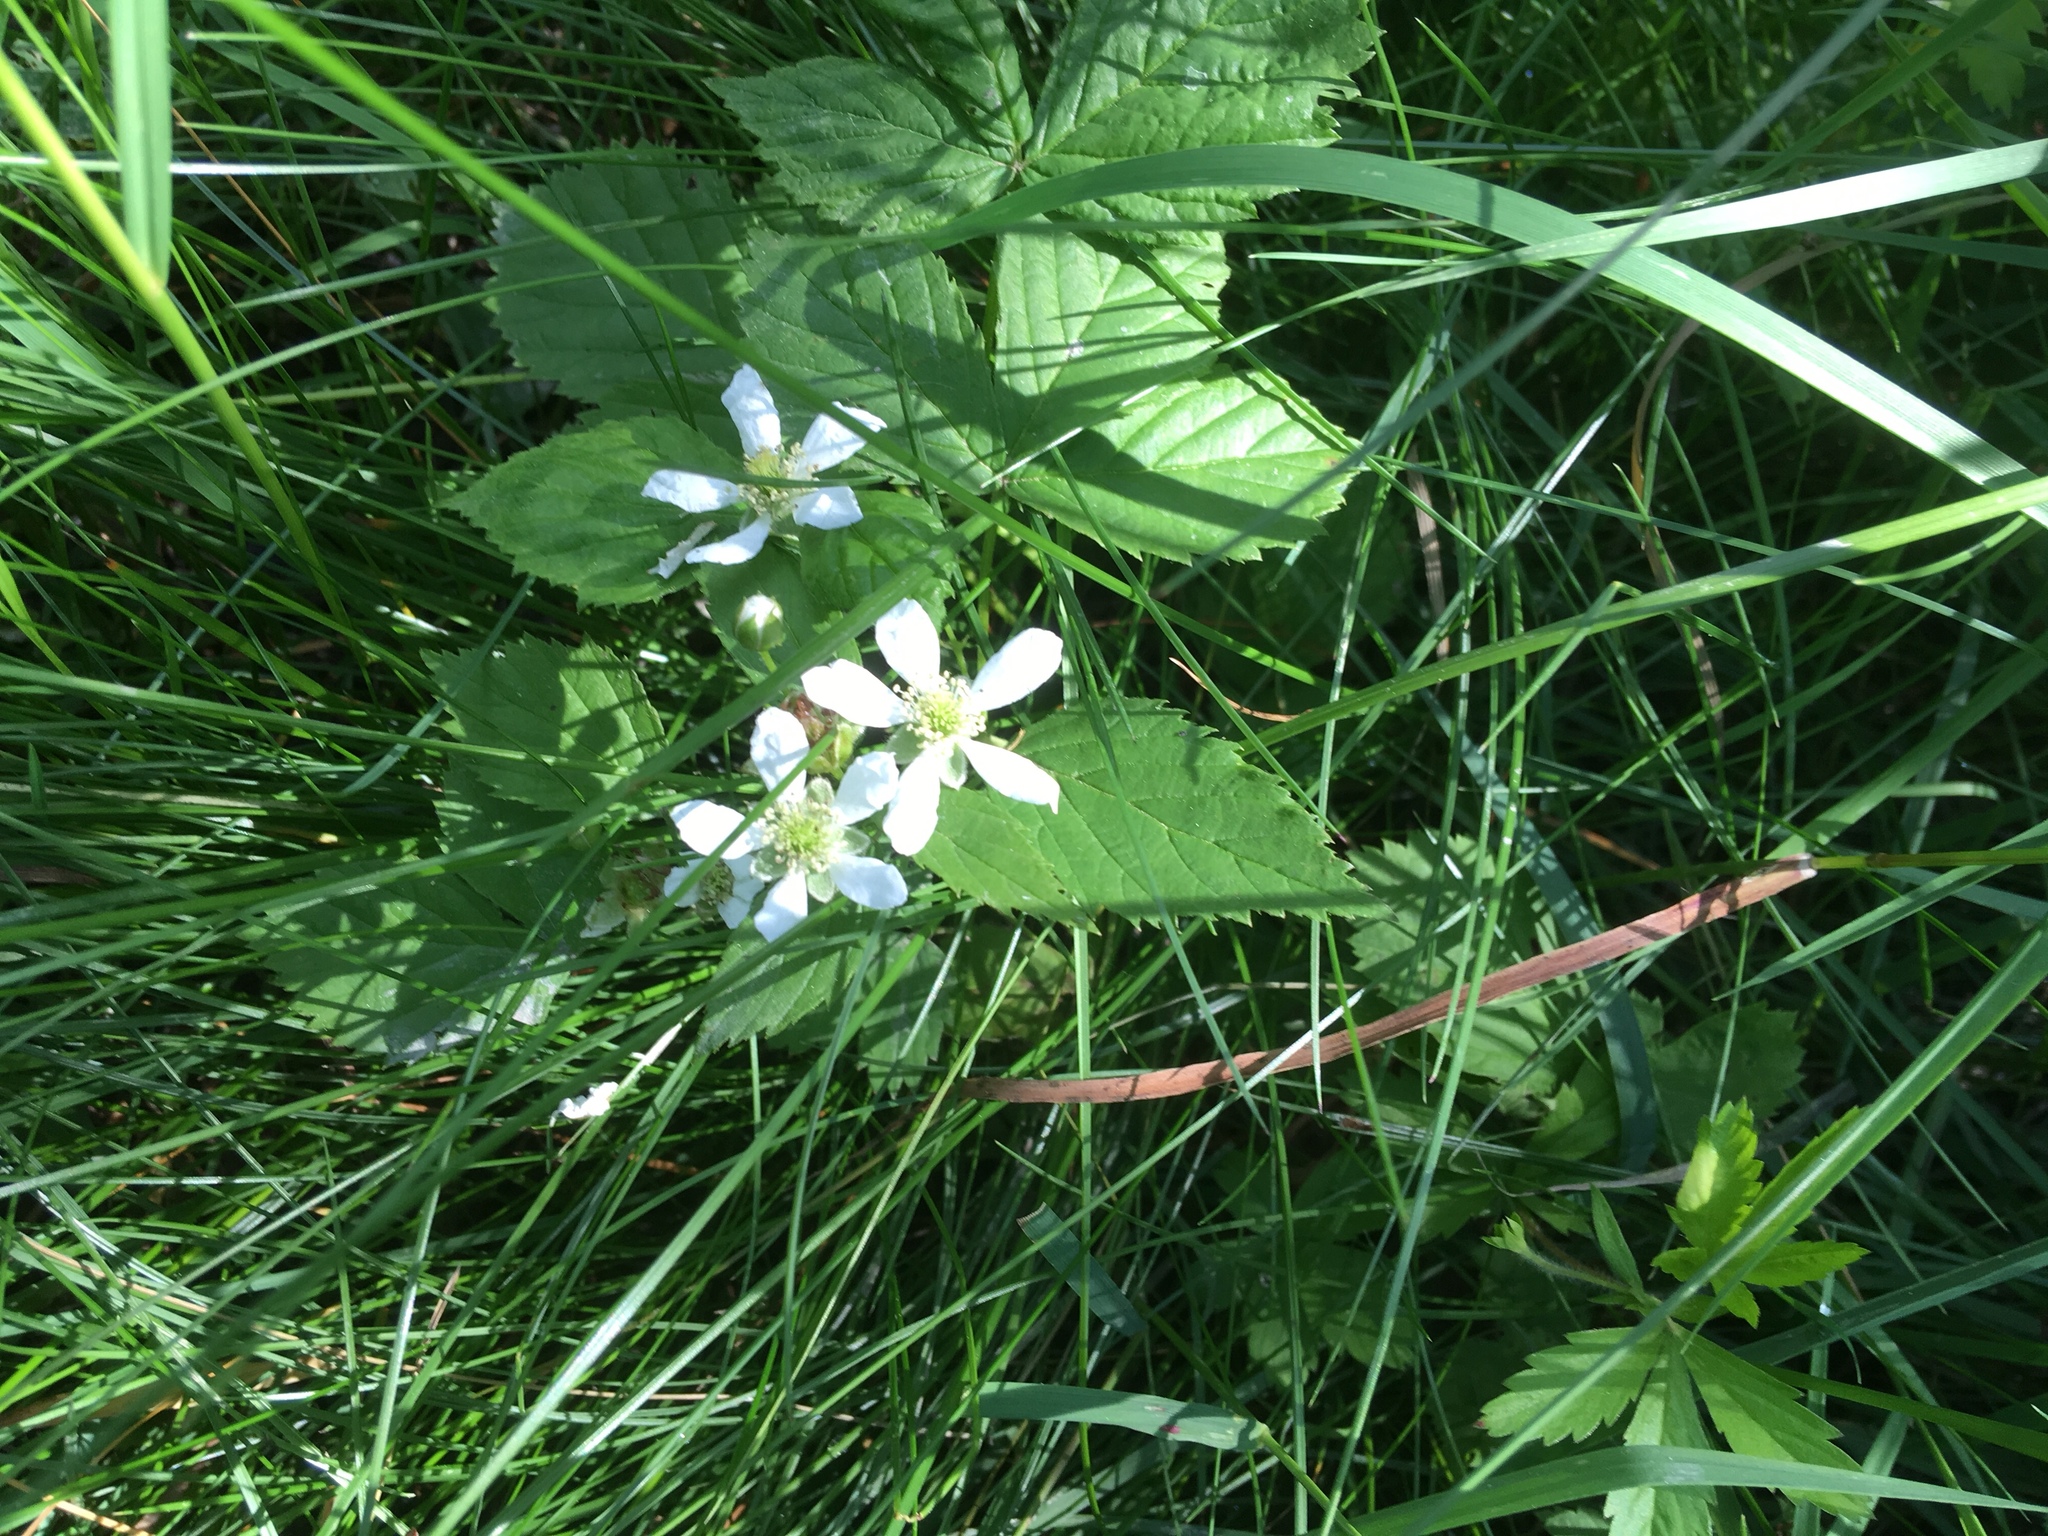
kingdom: Plantae
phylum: Tracheophyta
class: Magnoliopsida
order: Rosales
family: Rosaceae
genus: Rubus
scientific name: Rubus flagellaris
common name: American dewberry
